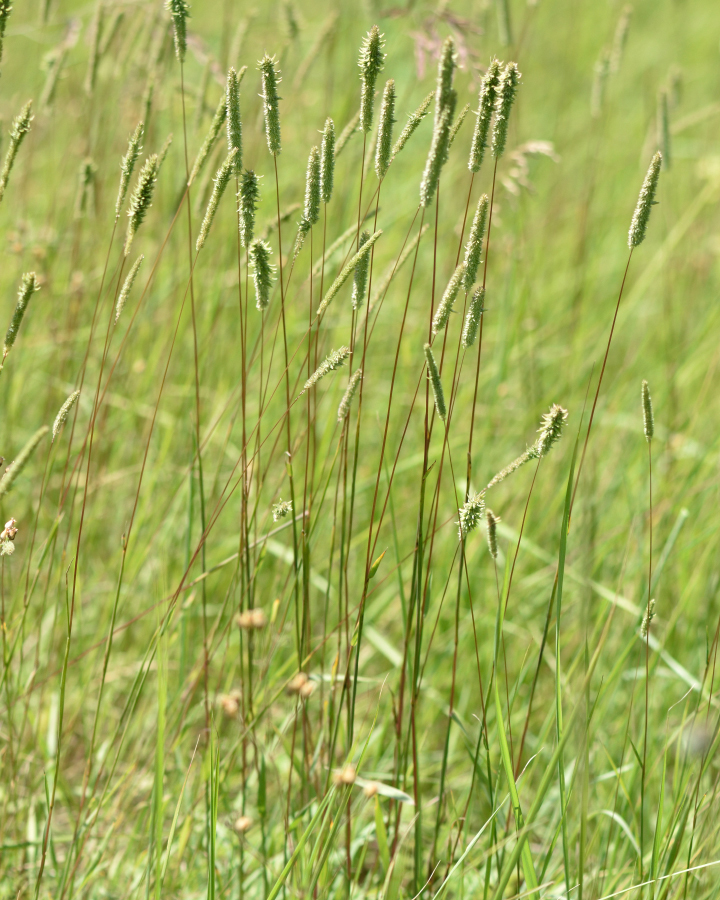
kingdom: Plantae
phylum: Tracheophyta
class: Liliopsida
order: Poales
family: Poaceae
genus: Phleum
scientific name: Phleum pratense
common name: Timothy grass
